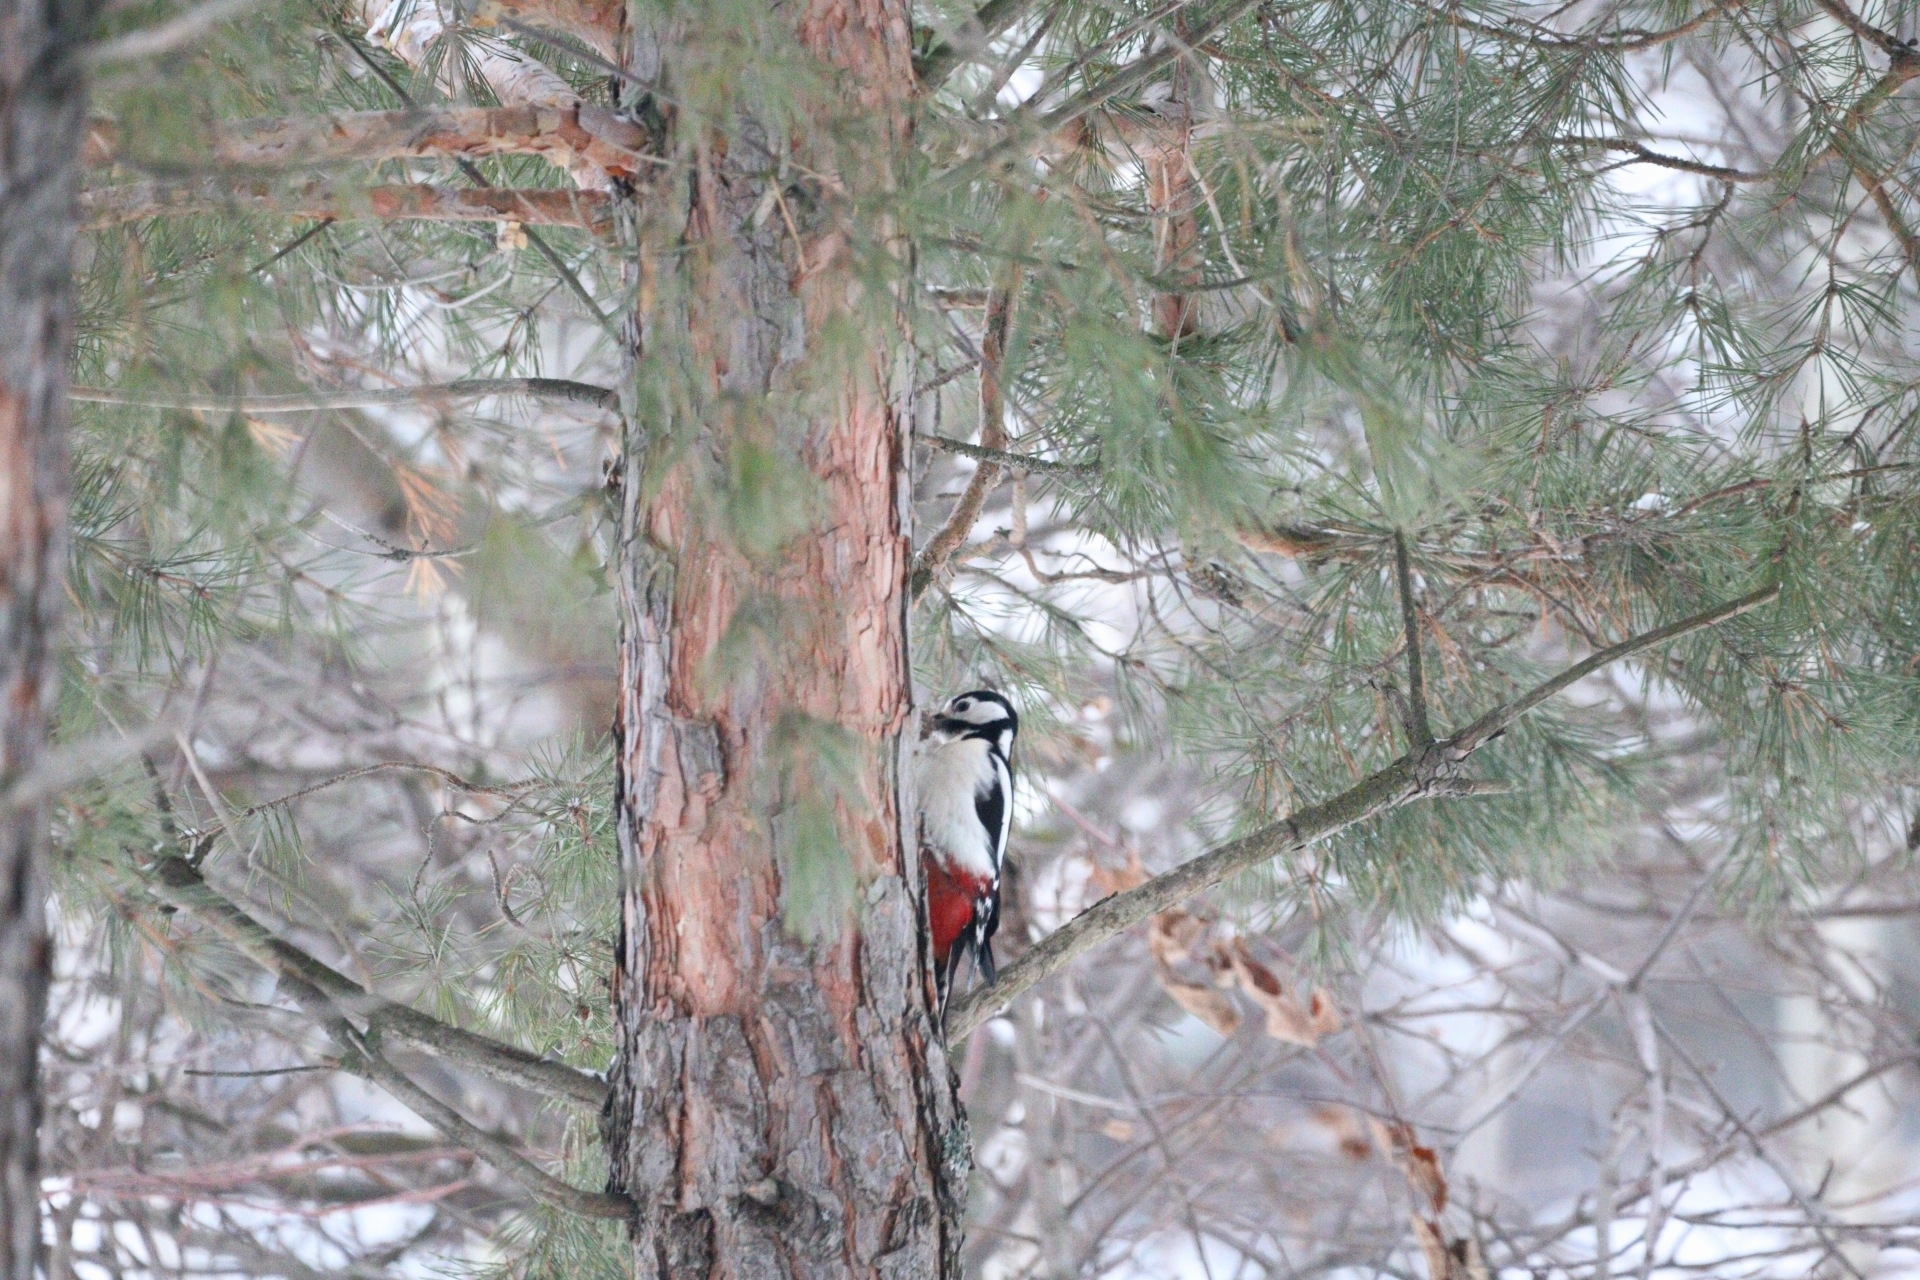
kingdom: Animalia
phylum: Chordata
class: Aves
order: Piciformes
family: Picidae
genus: Dendrocopos
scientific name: Dendrocopos major
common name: Great spotted woodpecker
